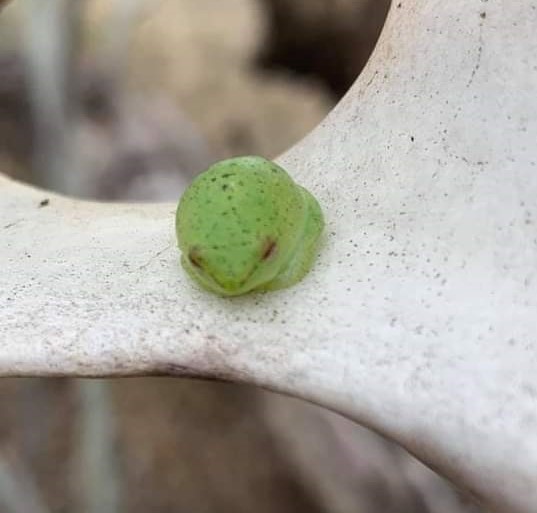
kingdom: Animalia
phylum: Chordata
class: Amphibia
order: Anura
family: Hyperoliidae
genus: Hyperolius
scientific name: Hyperolius pusillus
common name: Water lily reed frog
